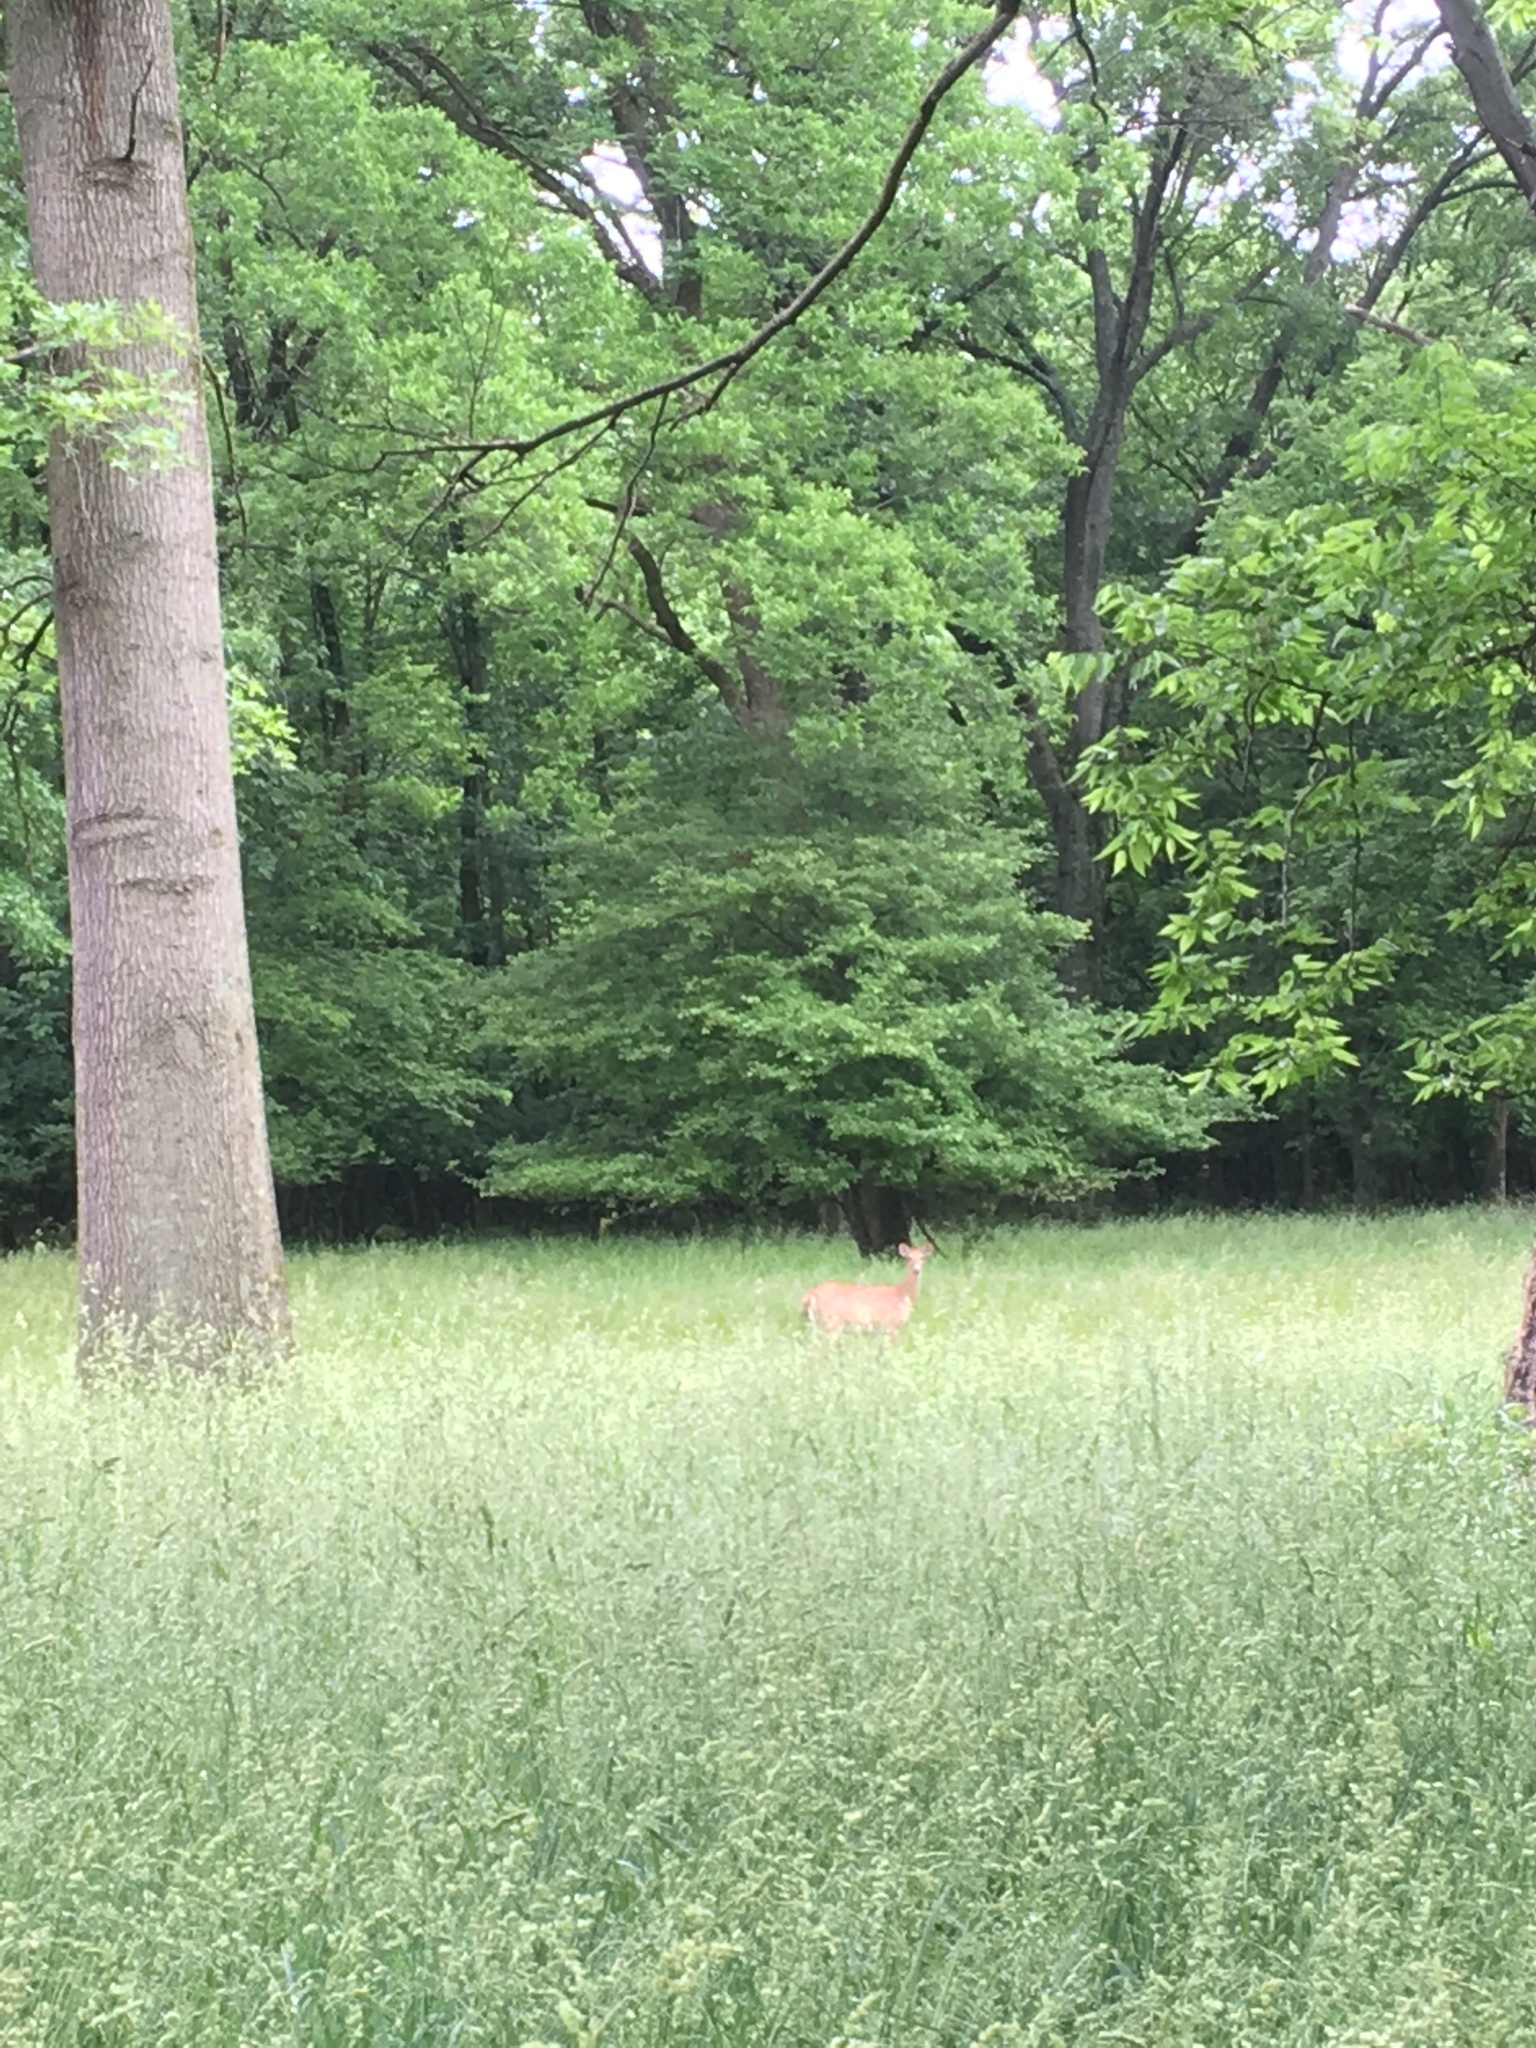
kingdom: Animalia
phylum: Chordata
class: Mammalia
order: Artiodactyla
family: Cervidae
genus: Odocoileus
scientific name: Odocoileus virginianus
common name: White-tailed deer
